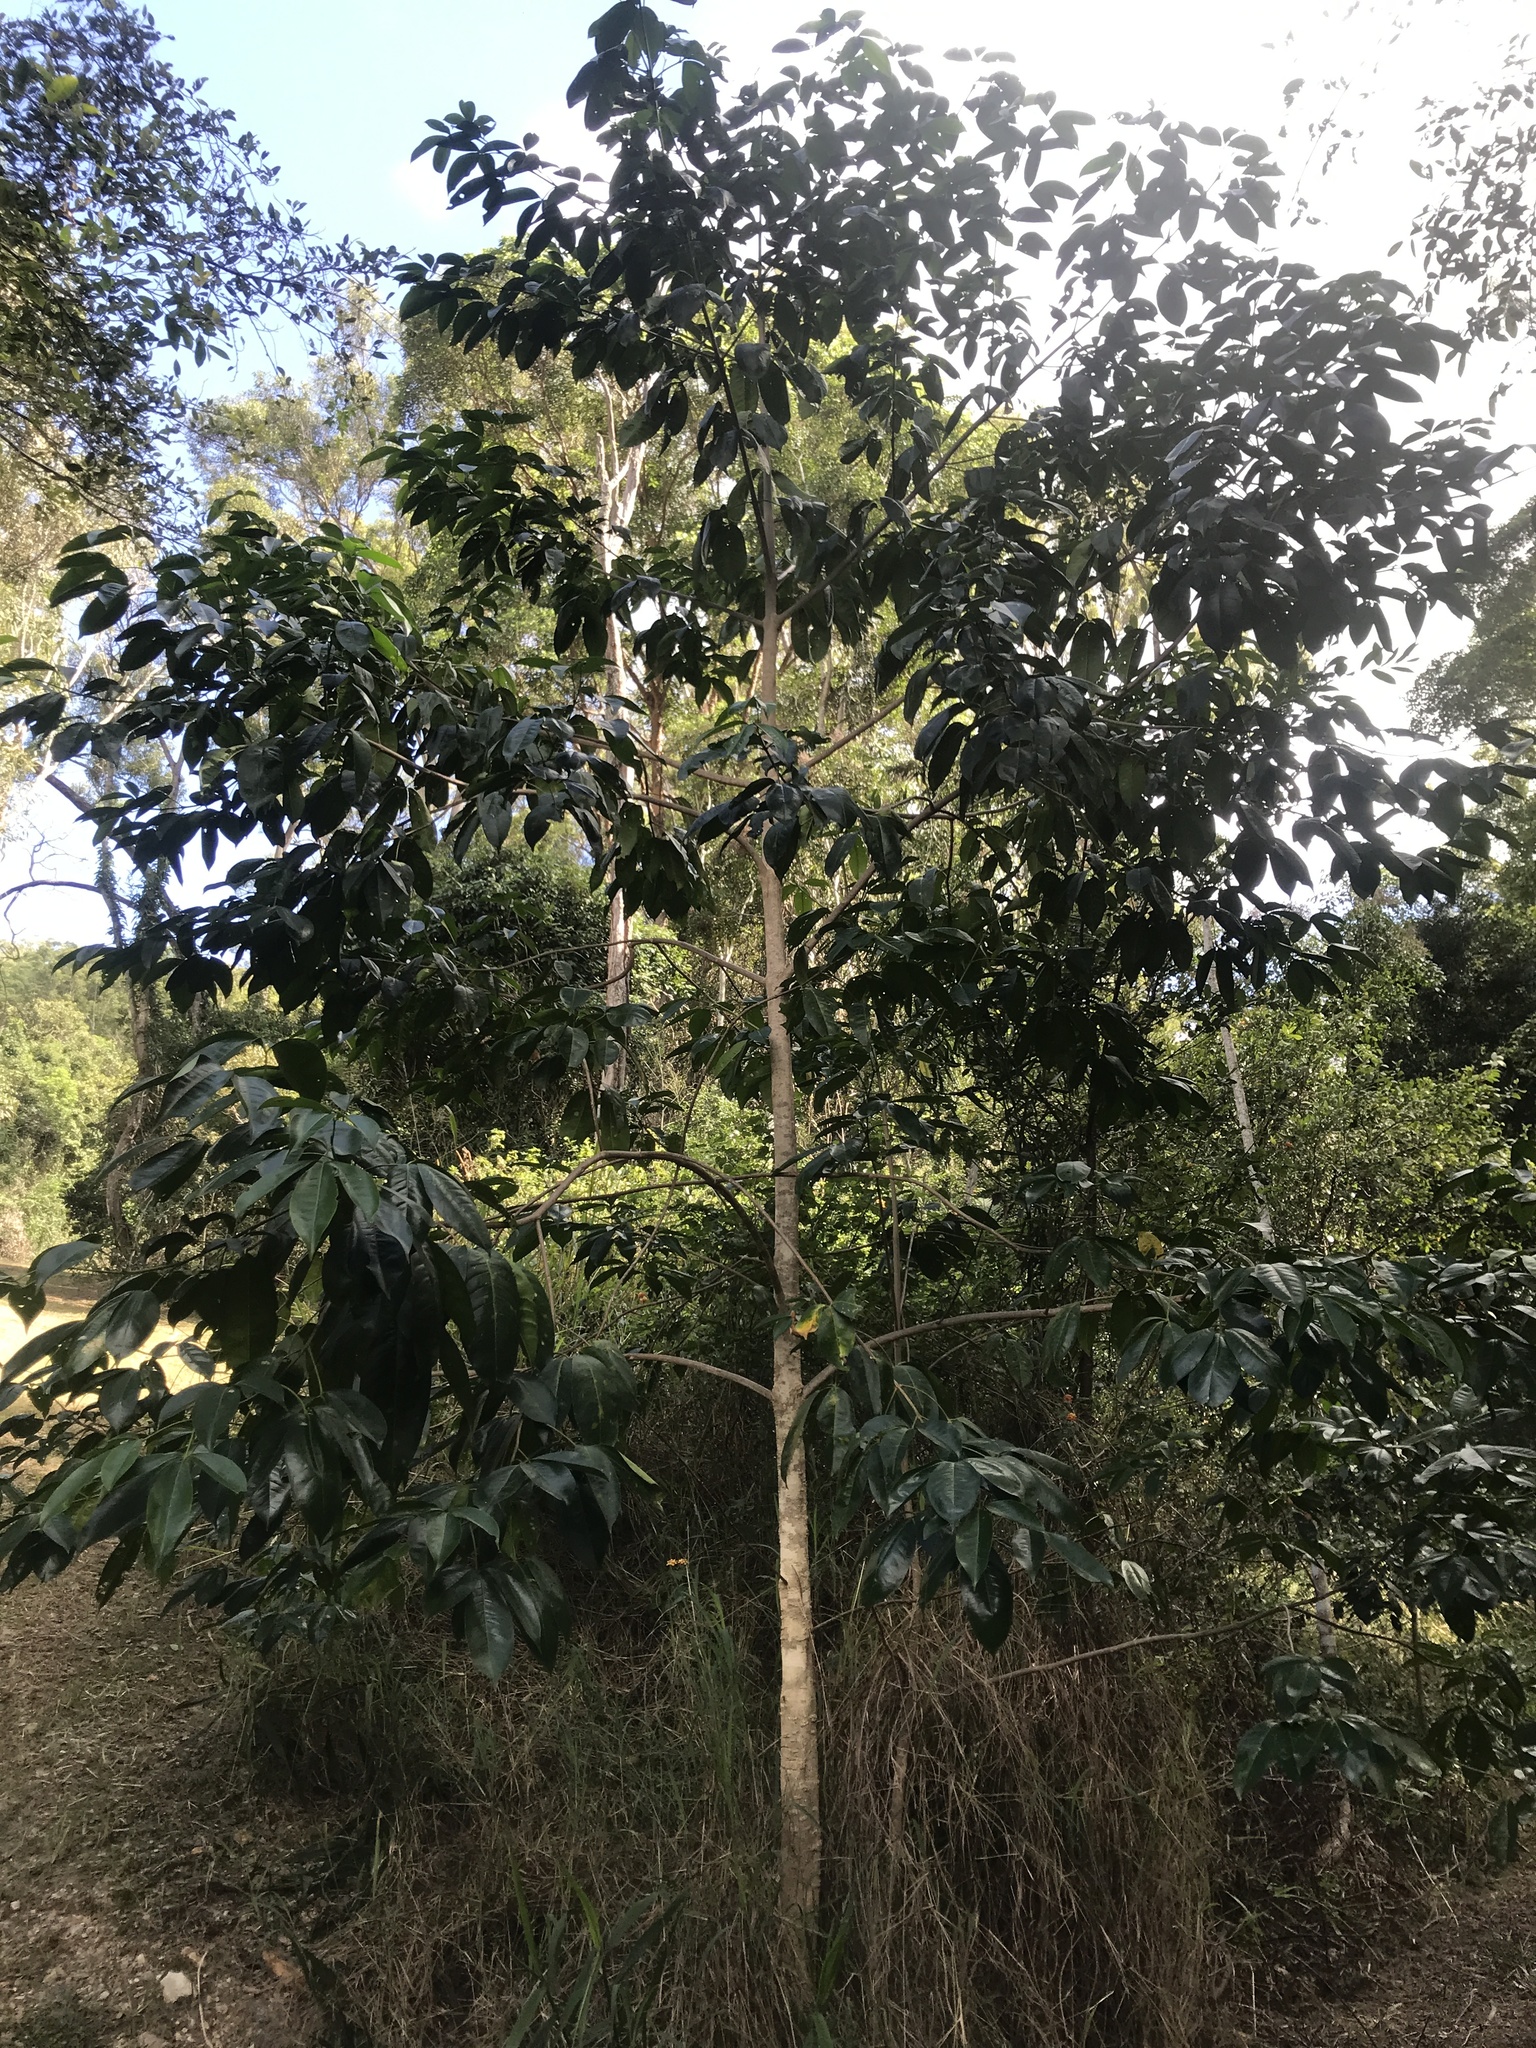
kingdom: Plantae
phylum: Tracheophyta
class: Magnoliopsida
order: Sapindales
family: Rutaceae
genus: Melicope
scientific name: Melicope elleryana
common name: Pink euodia
